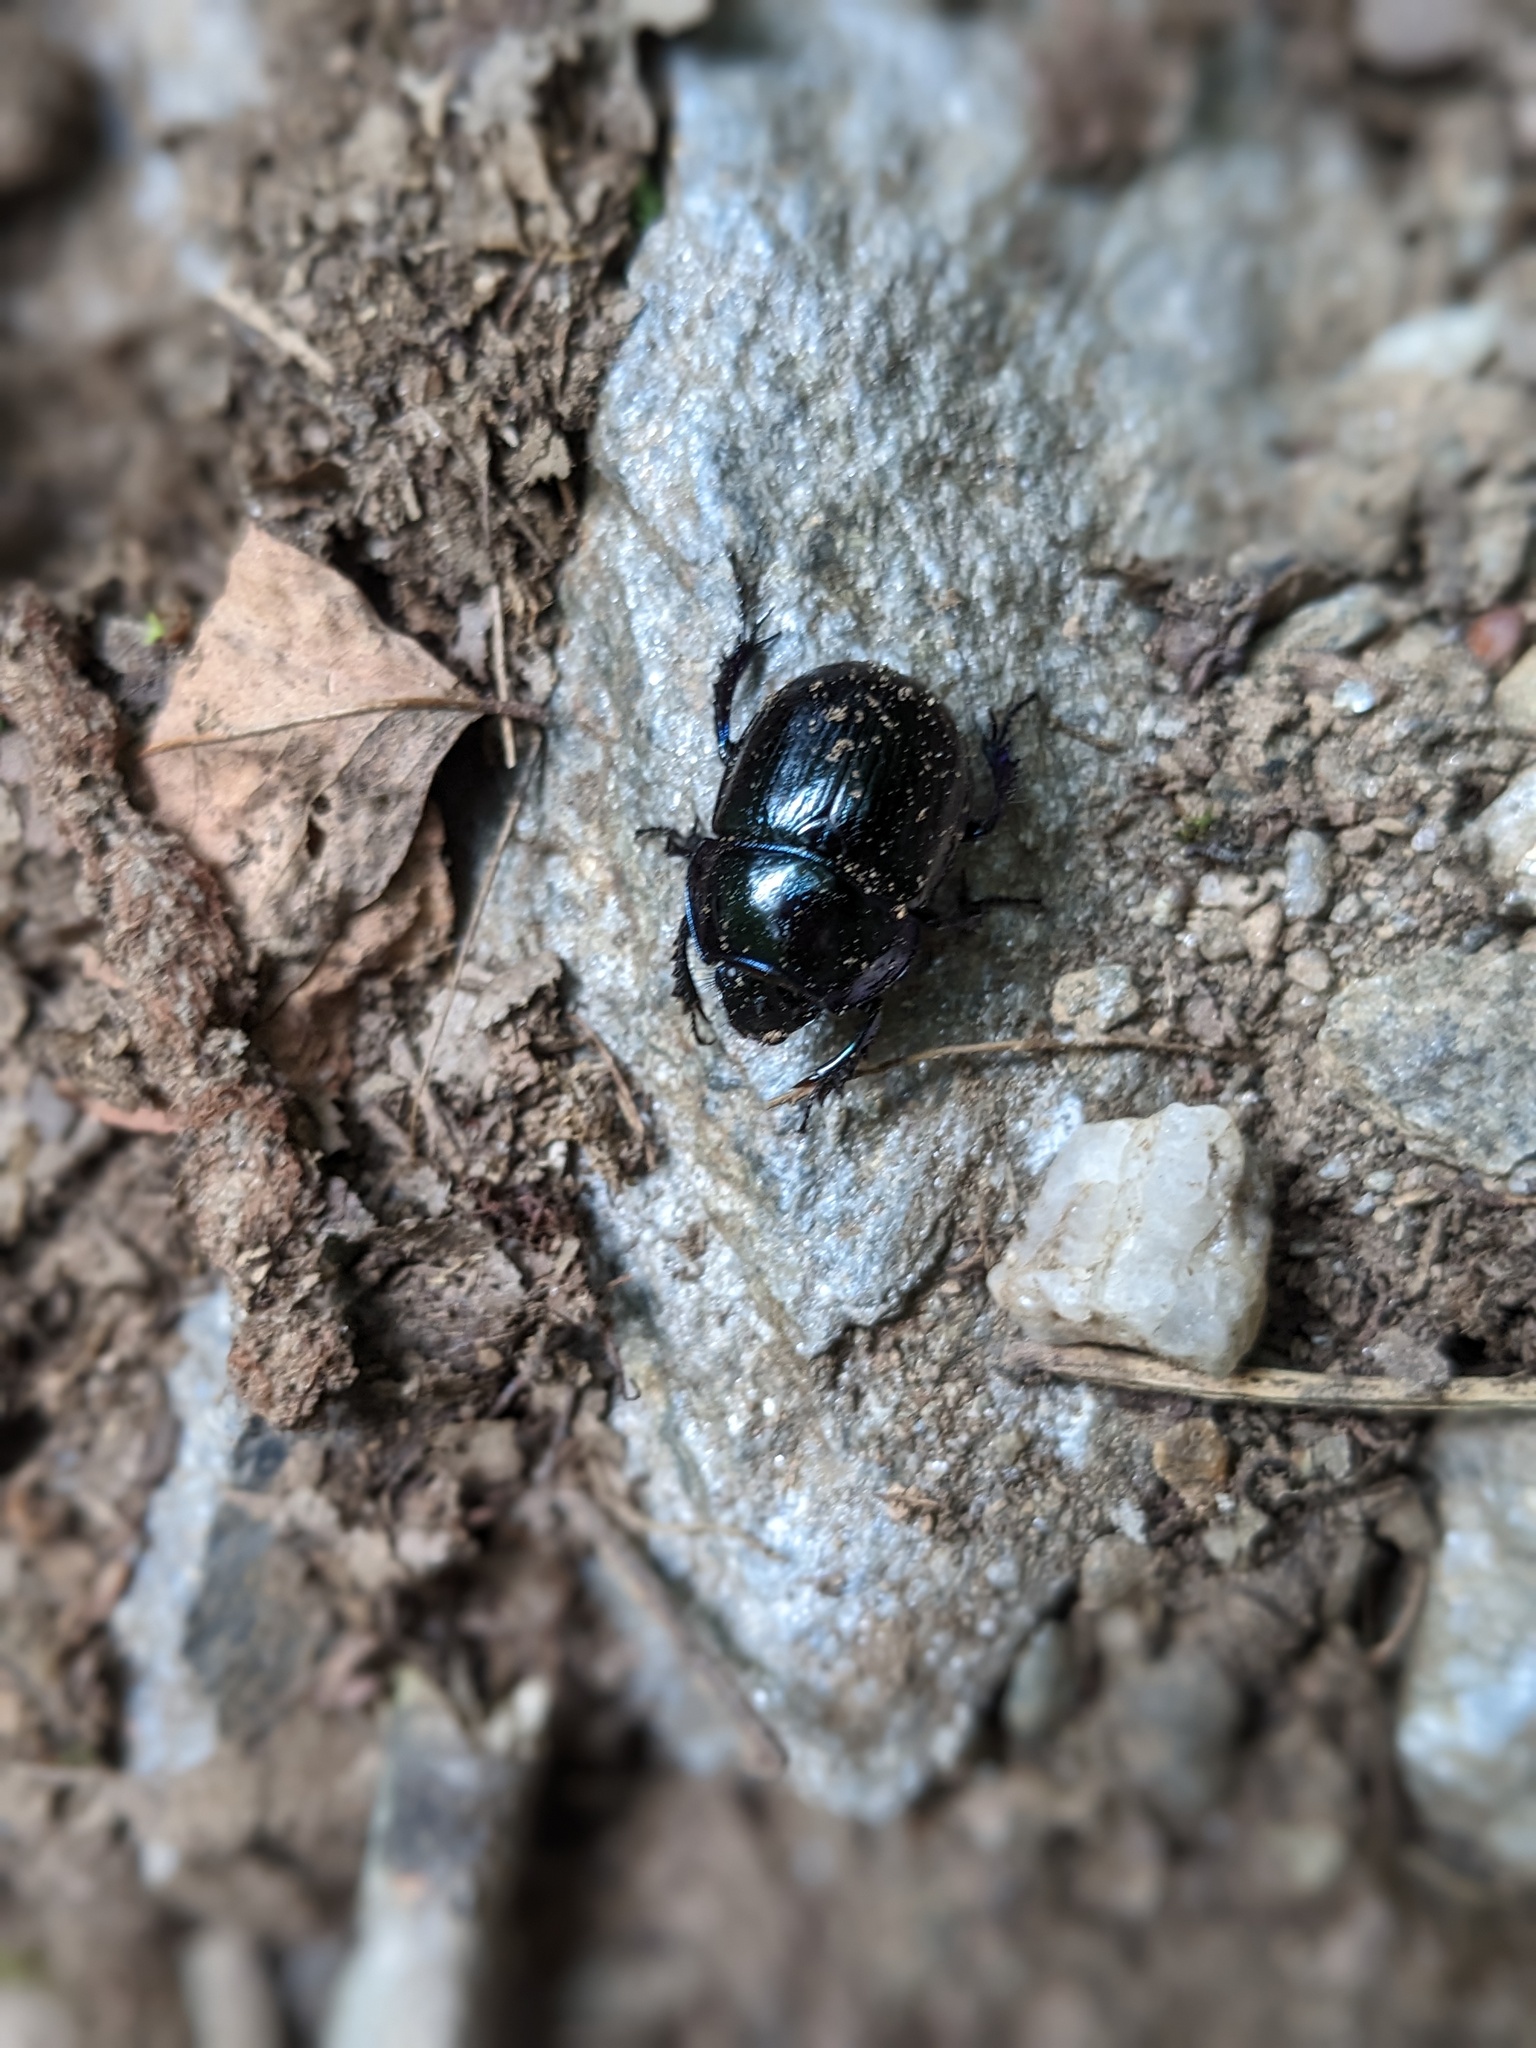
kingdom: Animalia
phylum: Arthropoda
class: Insecta
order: Coleoptera
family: Geotrupidae
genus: Anoplotrupes
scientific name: Anoplotrupes stercorosus
